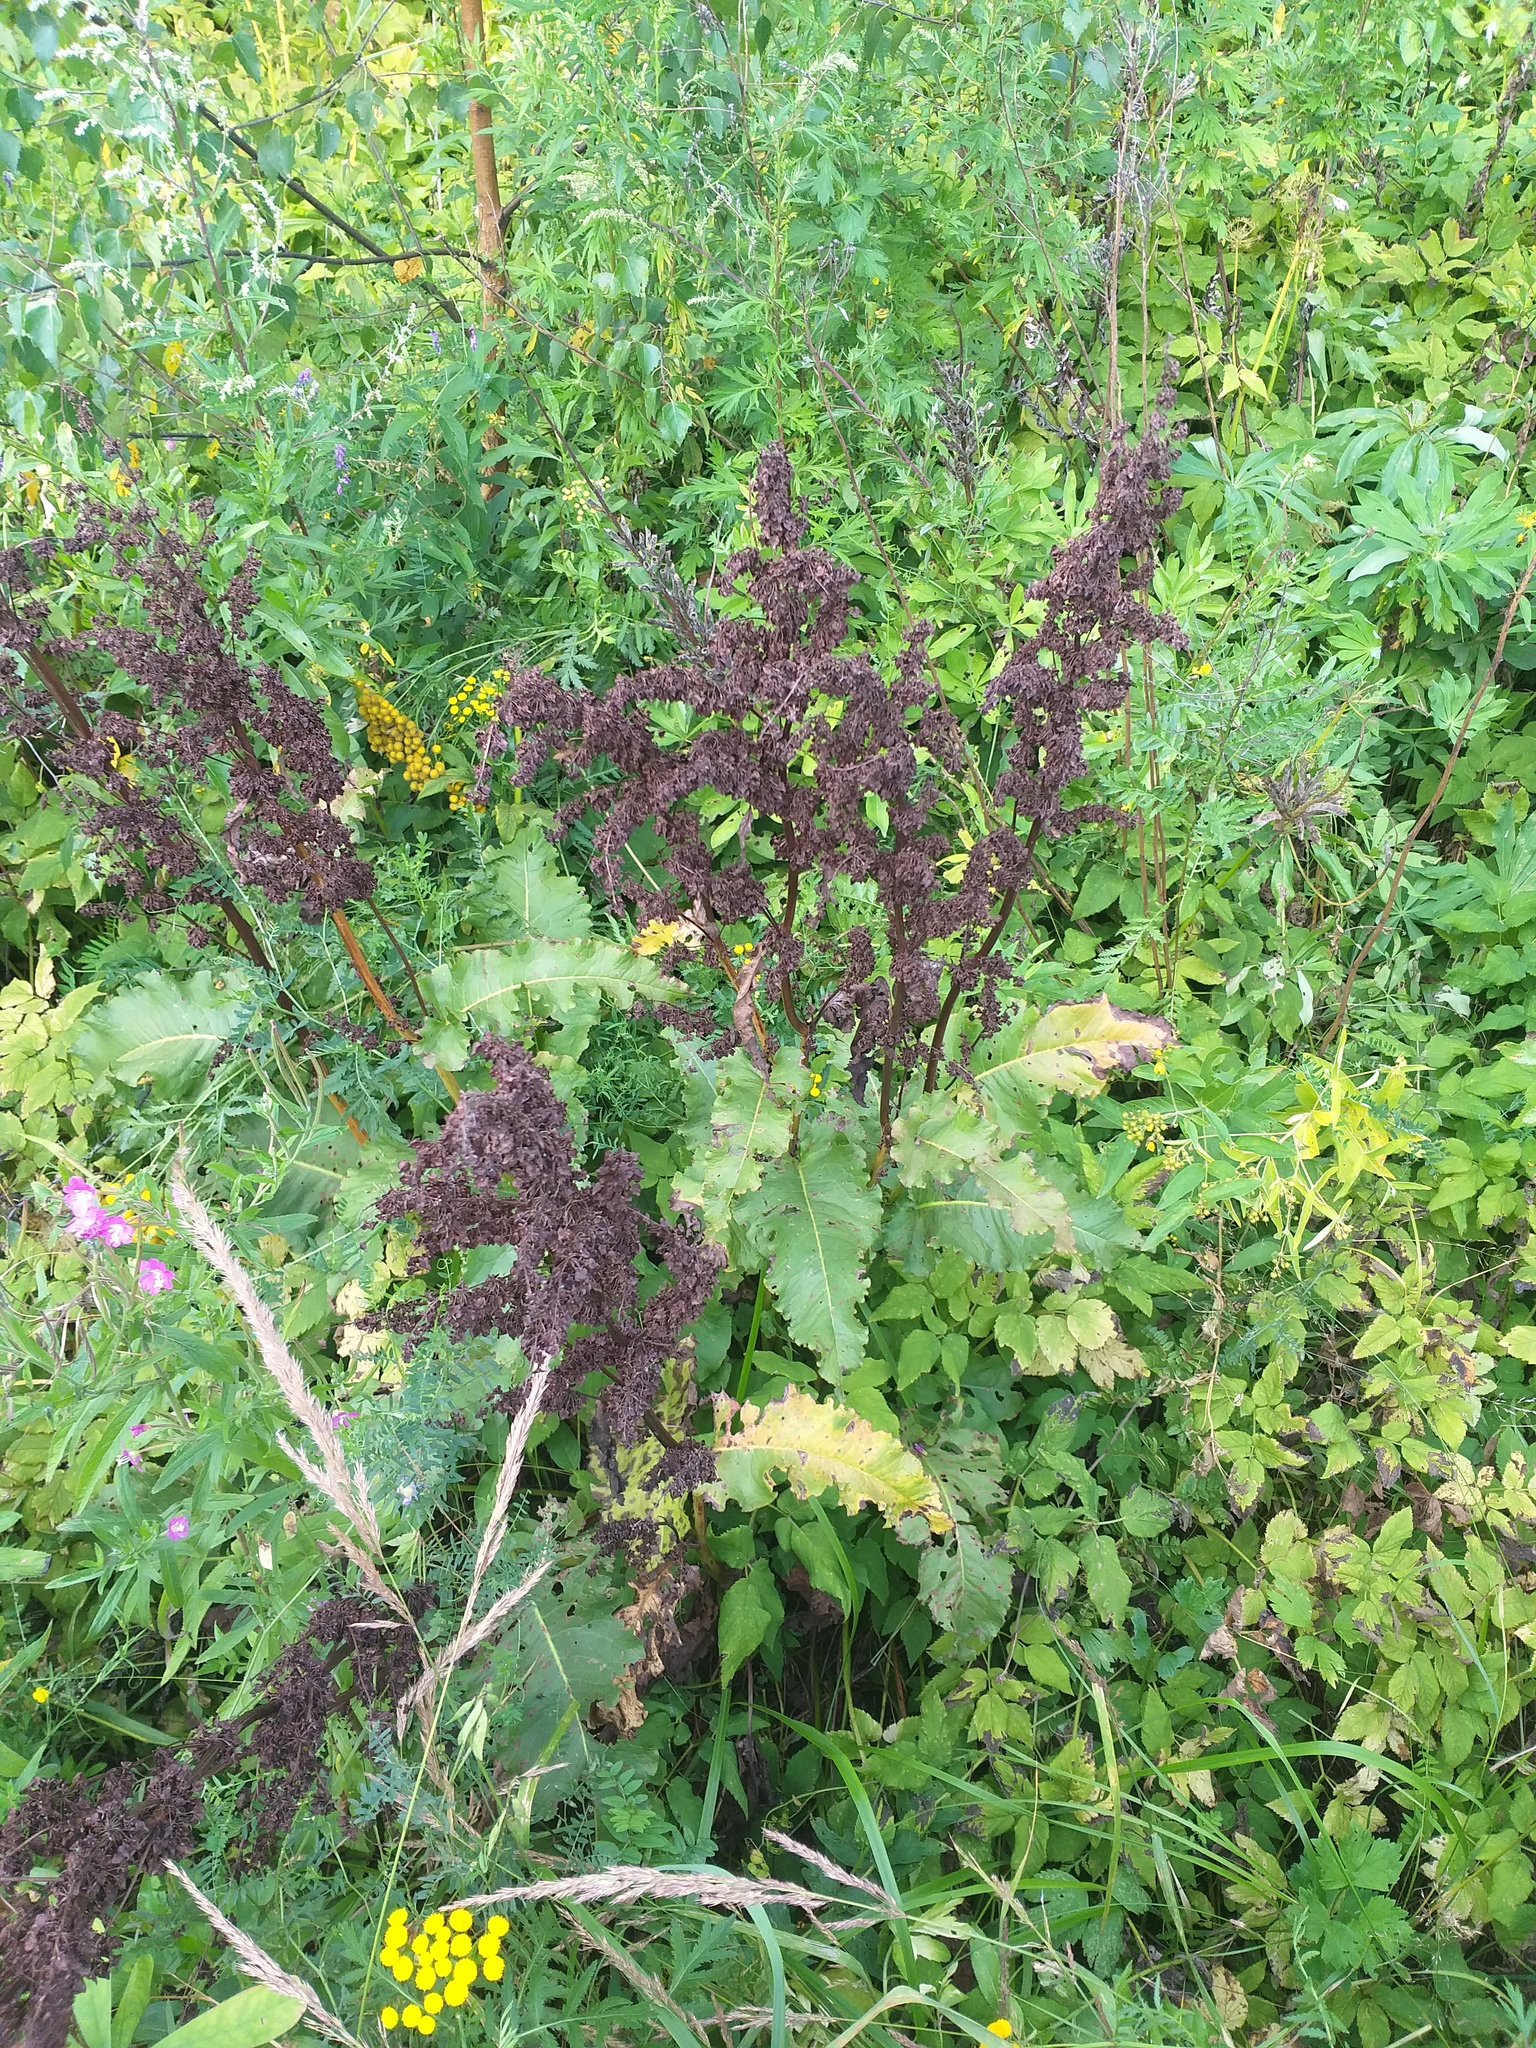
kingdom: Plantae
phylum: Tracheophyta
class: Magnoliopsida
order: Caryophyllales
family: Polygonaceae
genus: Rumex
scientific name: Rumex confertus
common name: Russian dock
